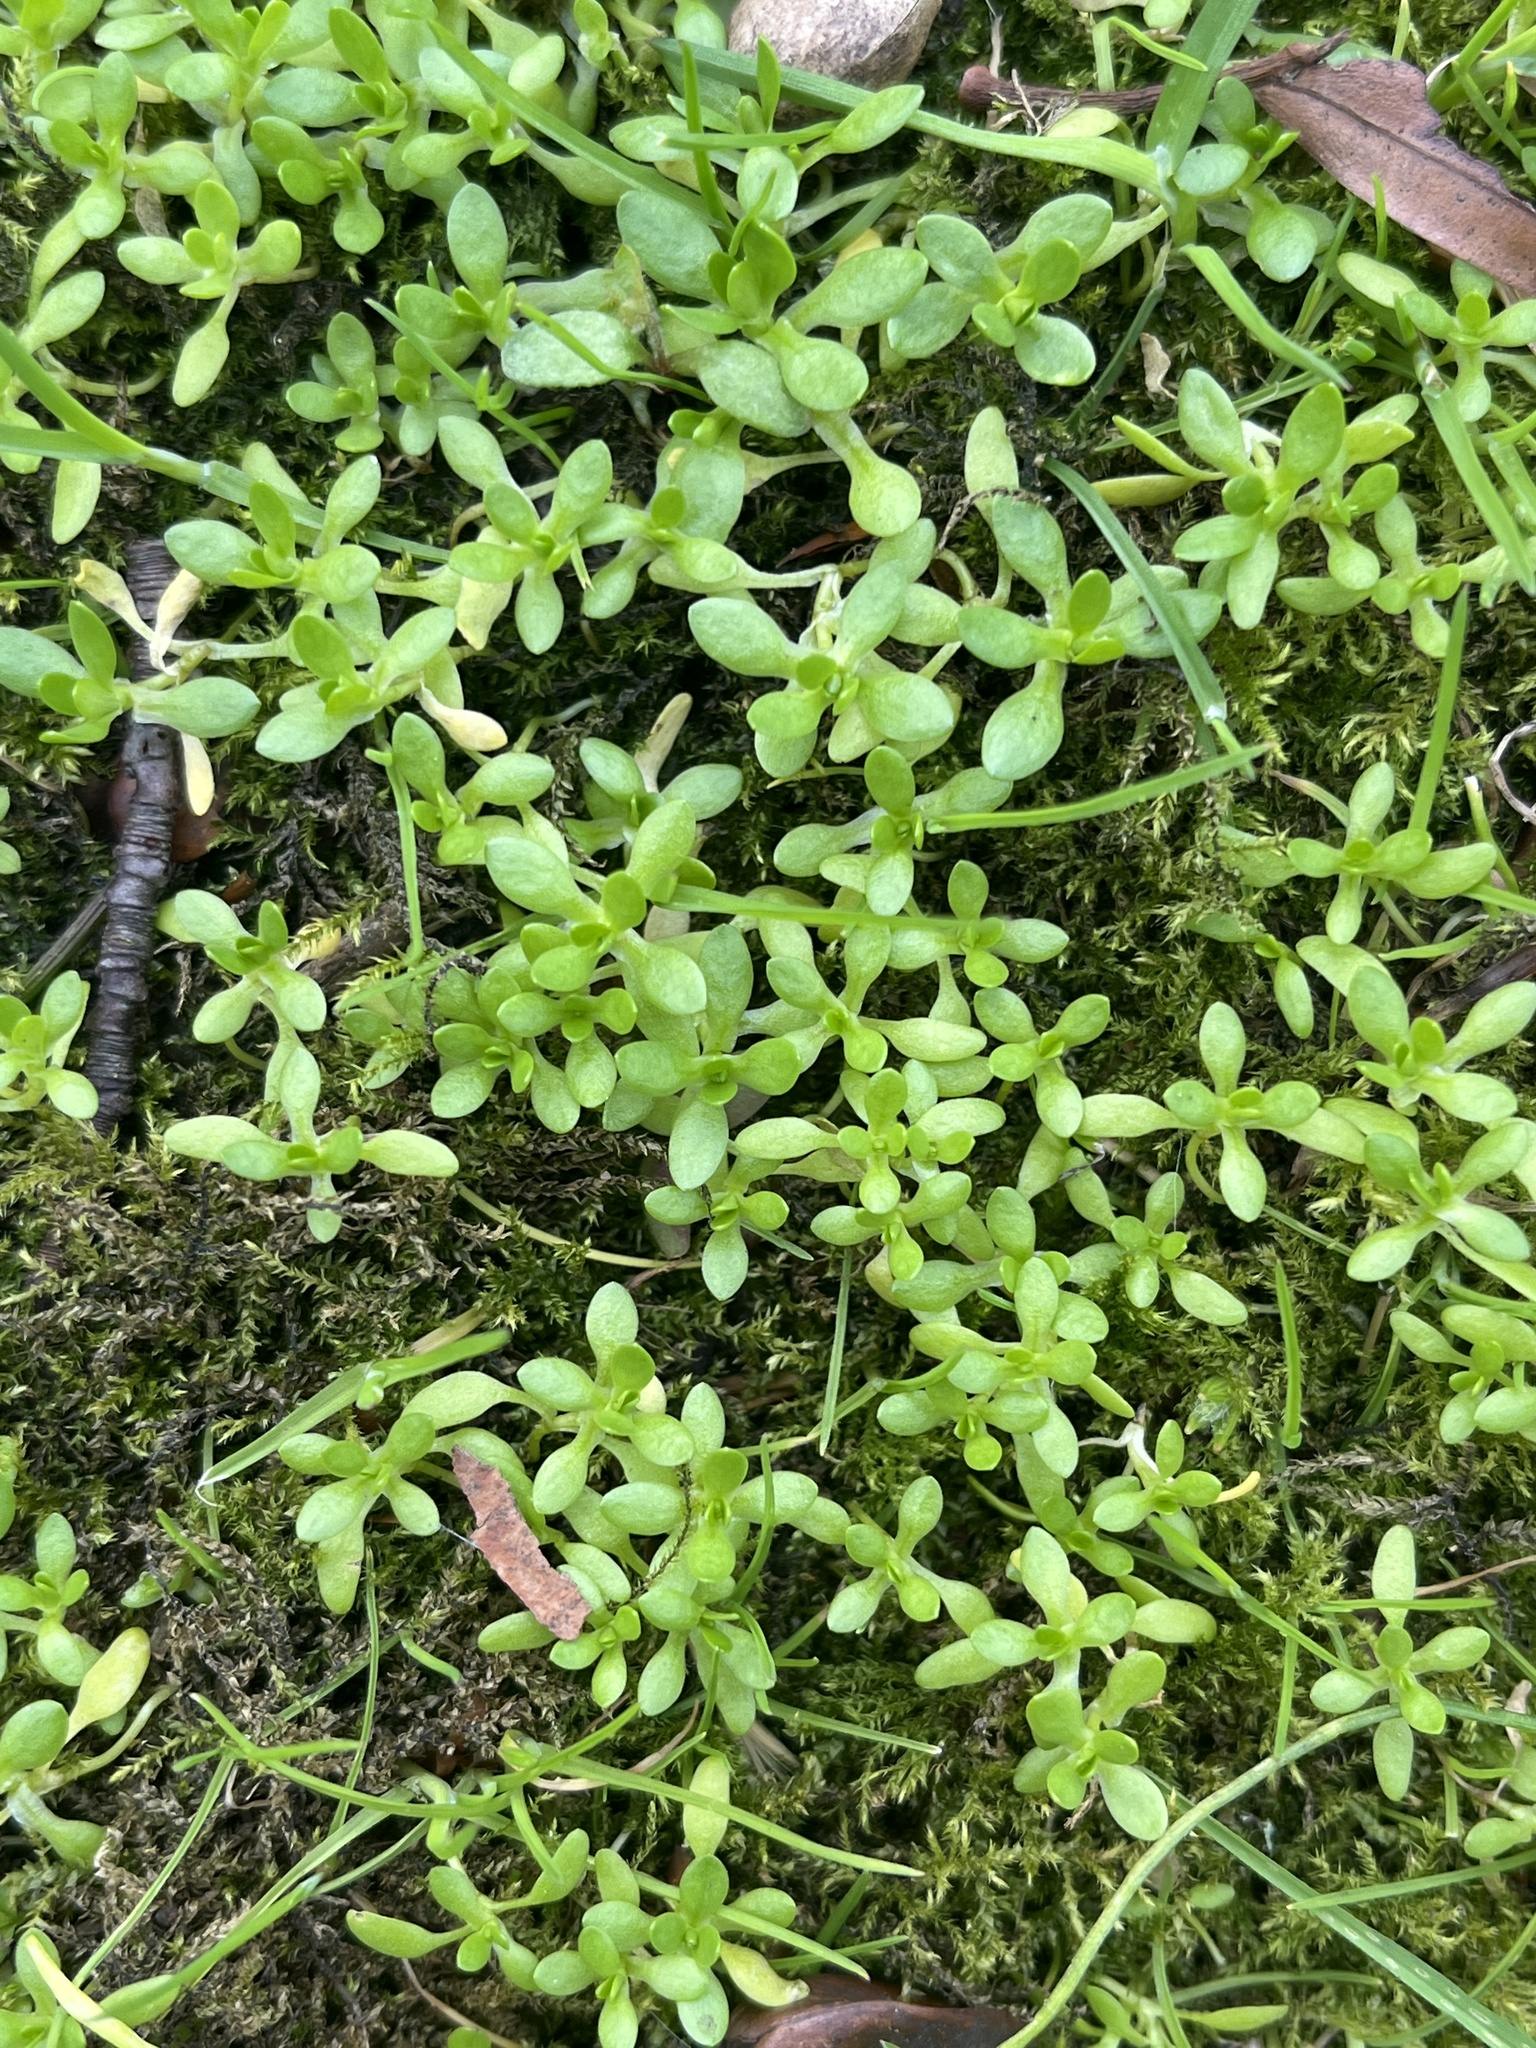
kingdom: Plantae
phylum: Tracheophyta
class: Magnoliopsida
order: Caryophyllales
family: Montiaceae
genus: Montia
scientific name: Montia fontana
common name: Blinks
